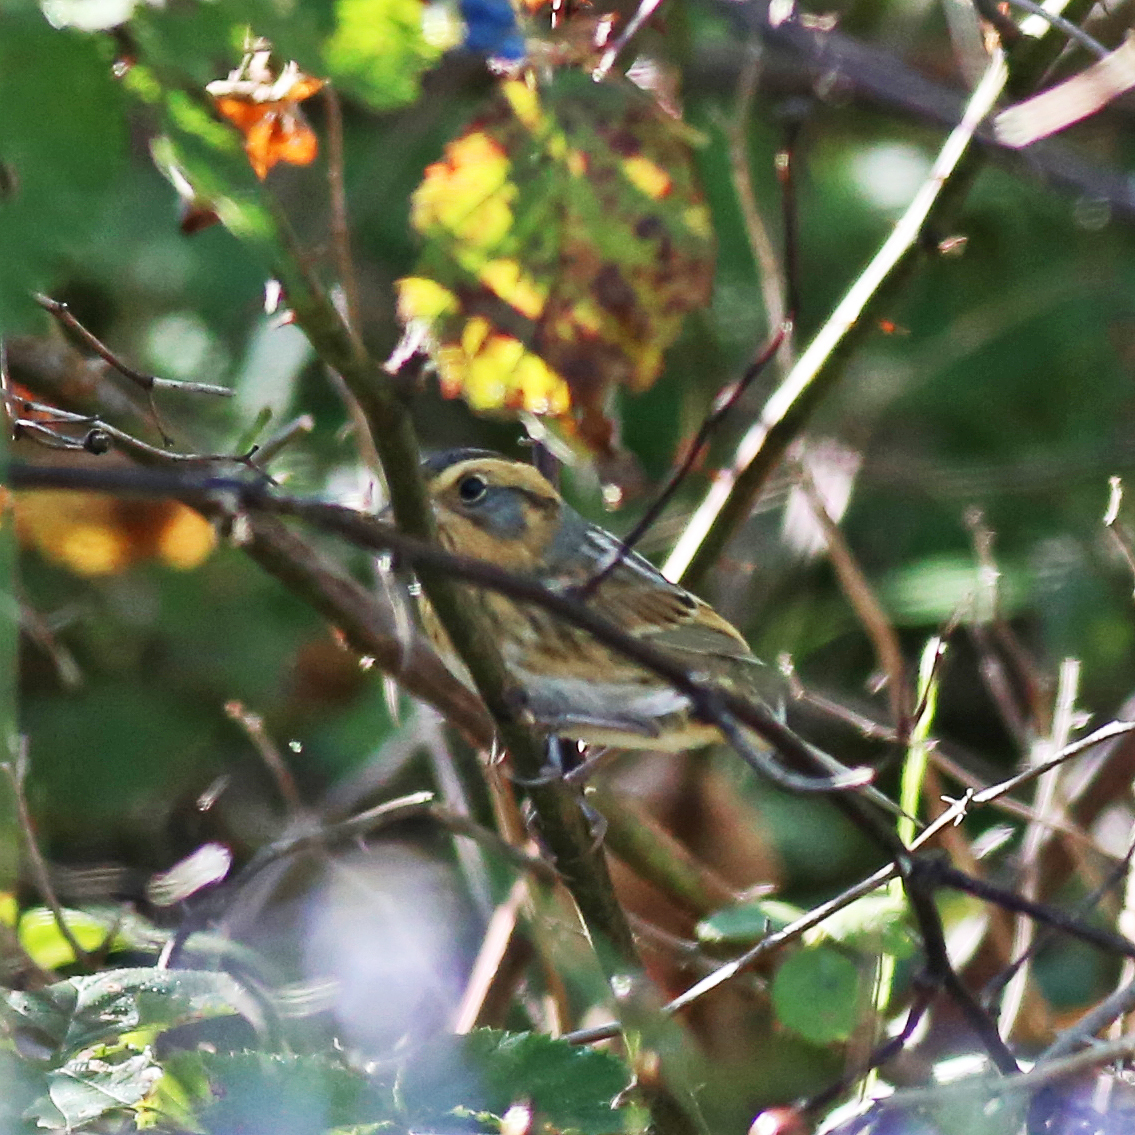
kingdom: Animalia
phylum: Chordata
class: Aves
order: Passeriformes
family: Passerellidae
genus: Ammospiza
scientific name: Ammospiza nelsoni
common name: Nelson's sparrow
